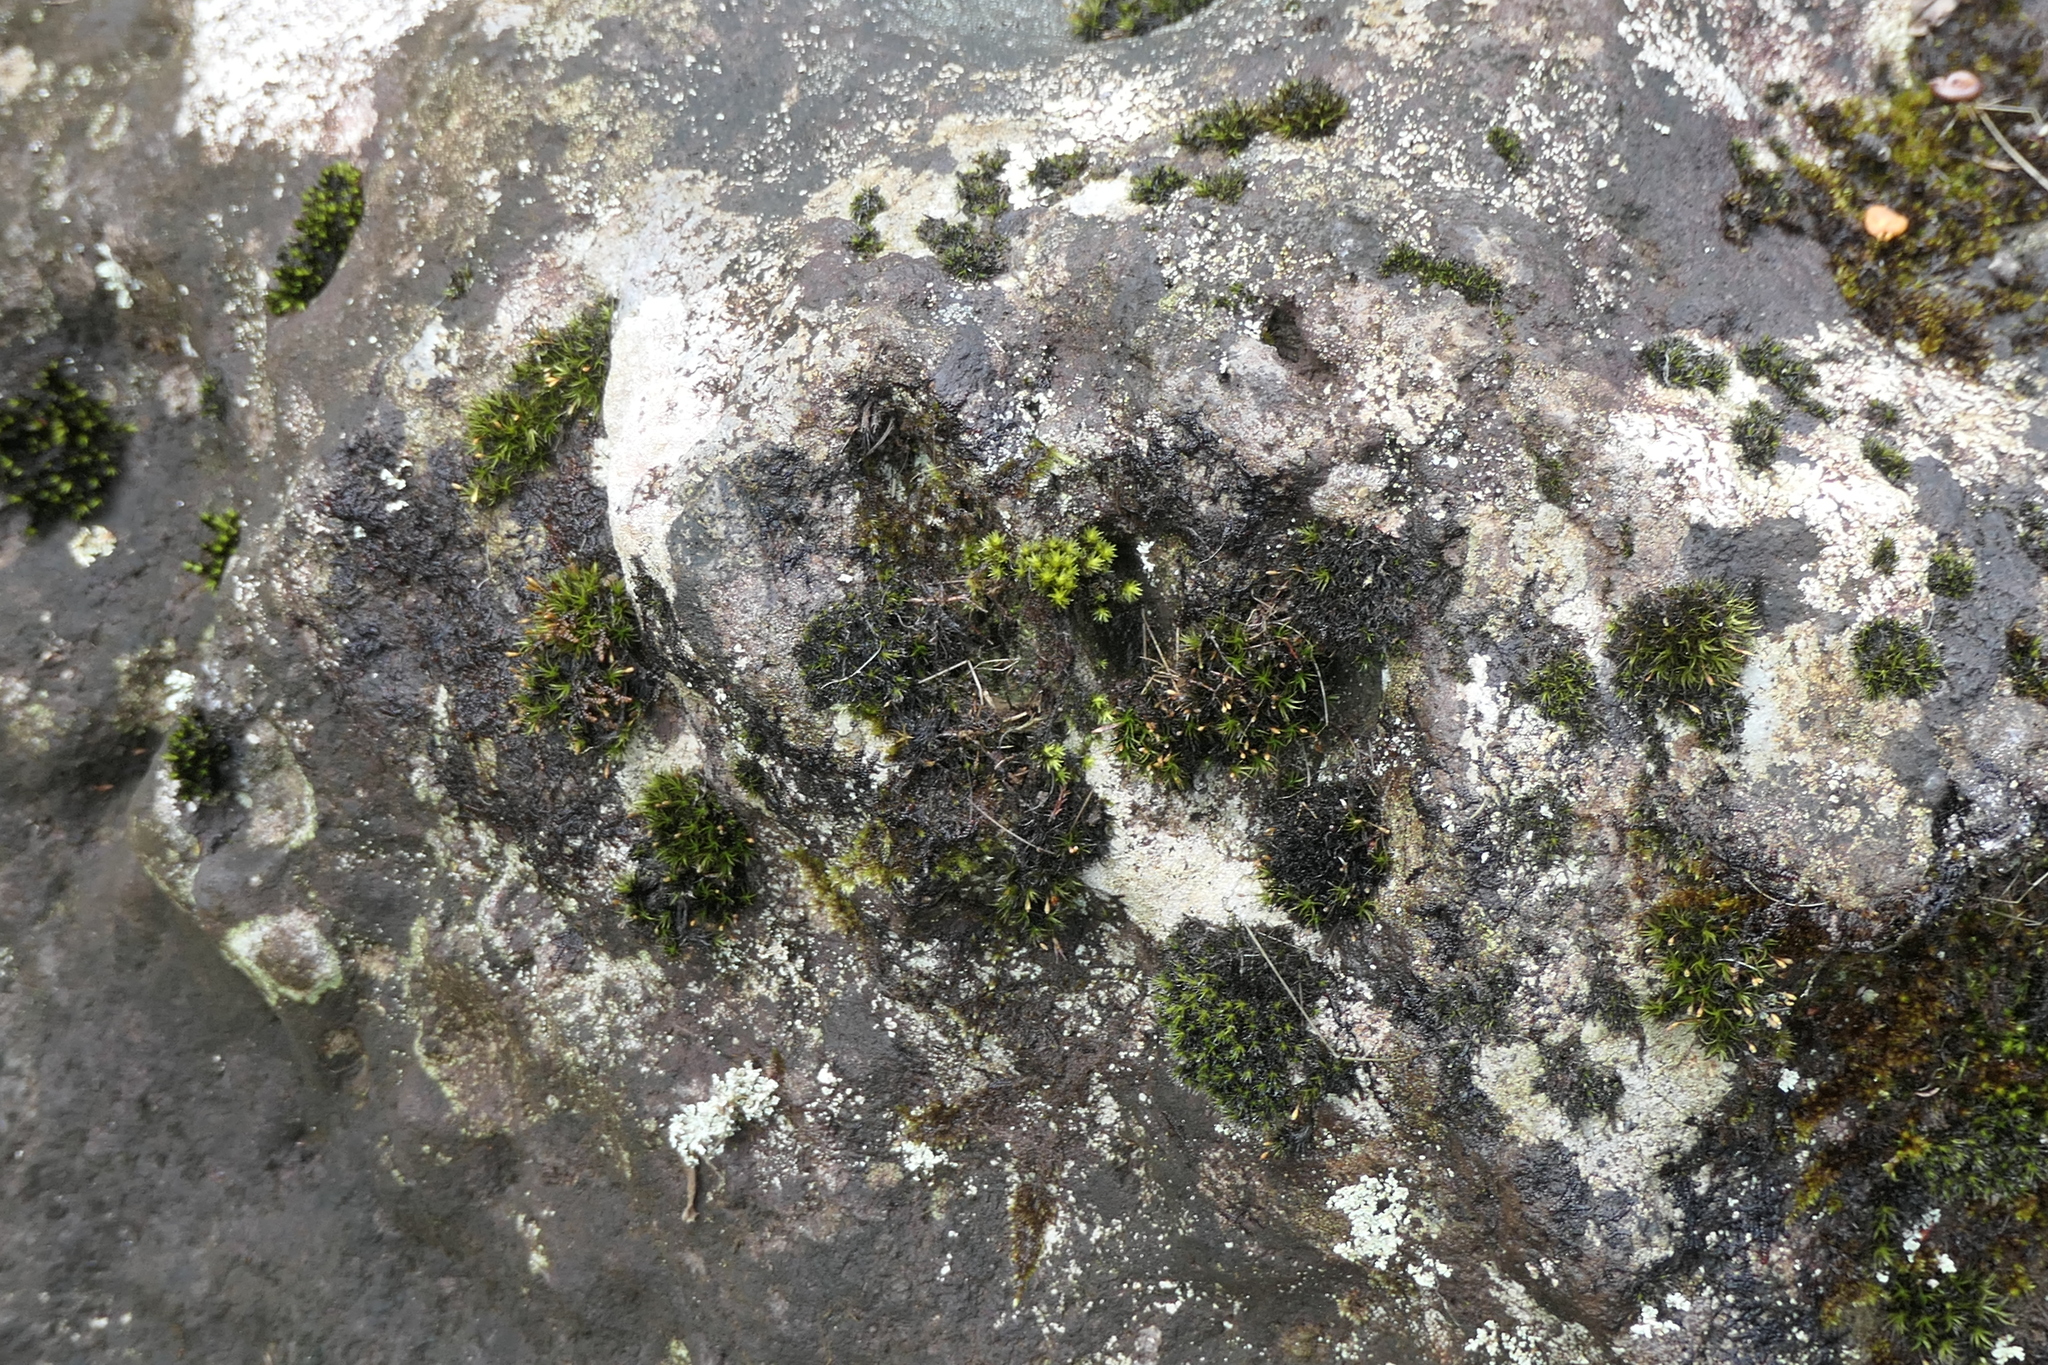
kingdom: Plantae
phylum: Bryophyta
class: Bryopsida
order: Grimmiales
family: Grimmiaceae
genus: Codriophorus
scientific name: Codriophorus acicularis
